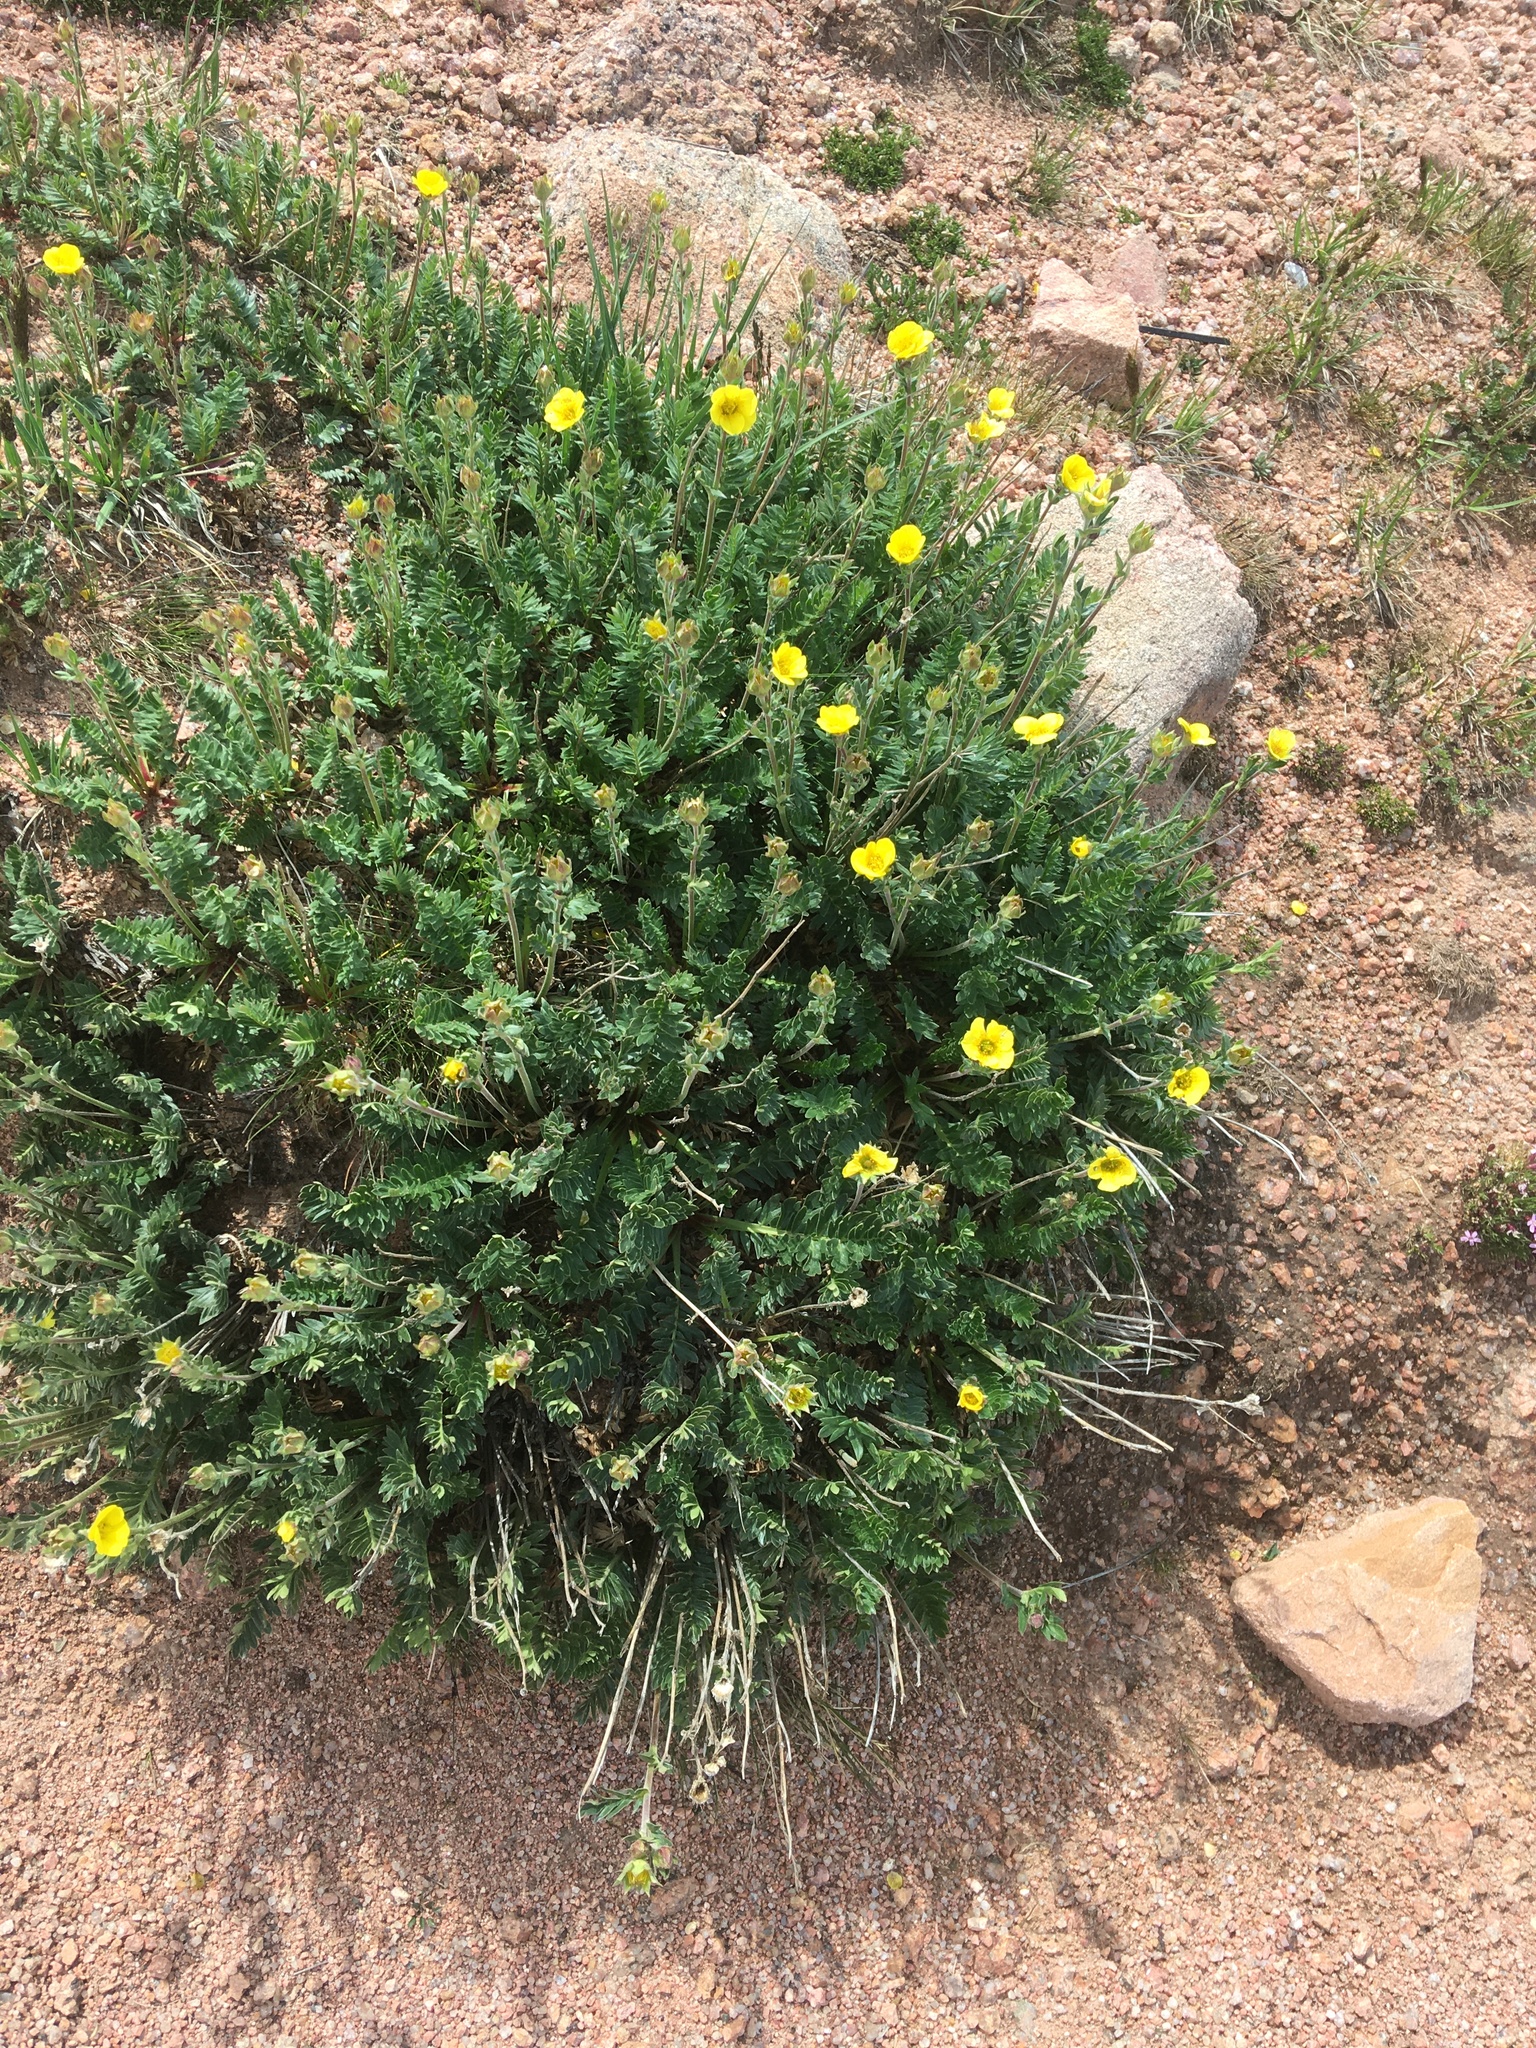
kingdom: Plantae
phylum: Tracheophyta
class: Magnoliopsida
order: Rosales
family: Rosaceae
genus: Geum
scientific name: Geum rossii
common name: Alpine avens
